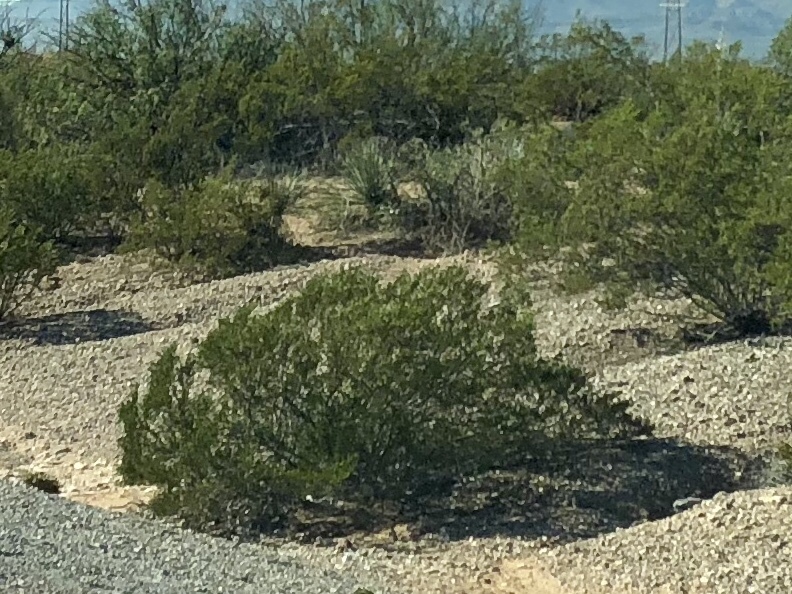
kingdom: Plantae
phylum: Tracheophyta
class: Magnoliopsida
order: Zygophyllales
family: Zygophyllaceae
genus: Larrea
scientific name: Larrea tridentata
